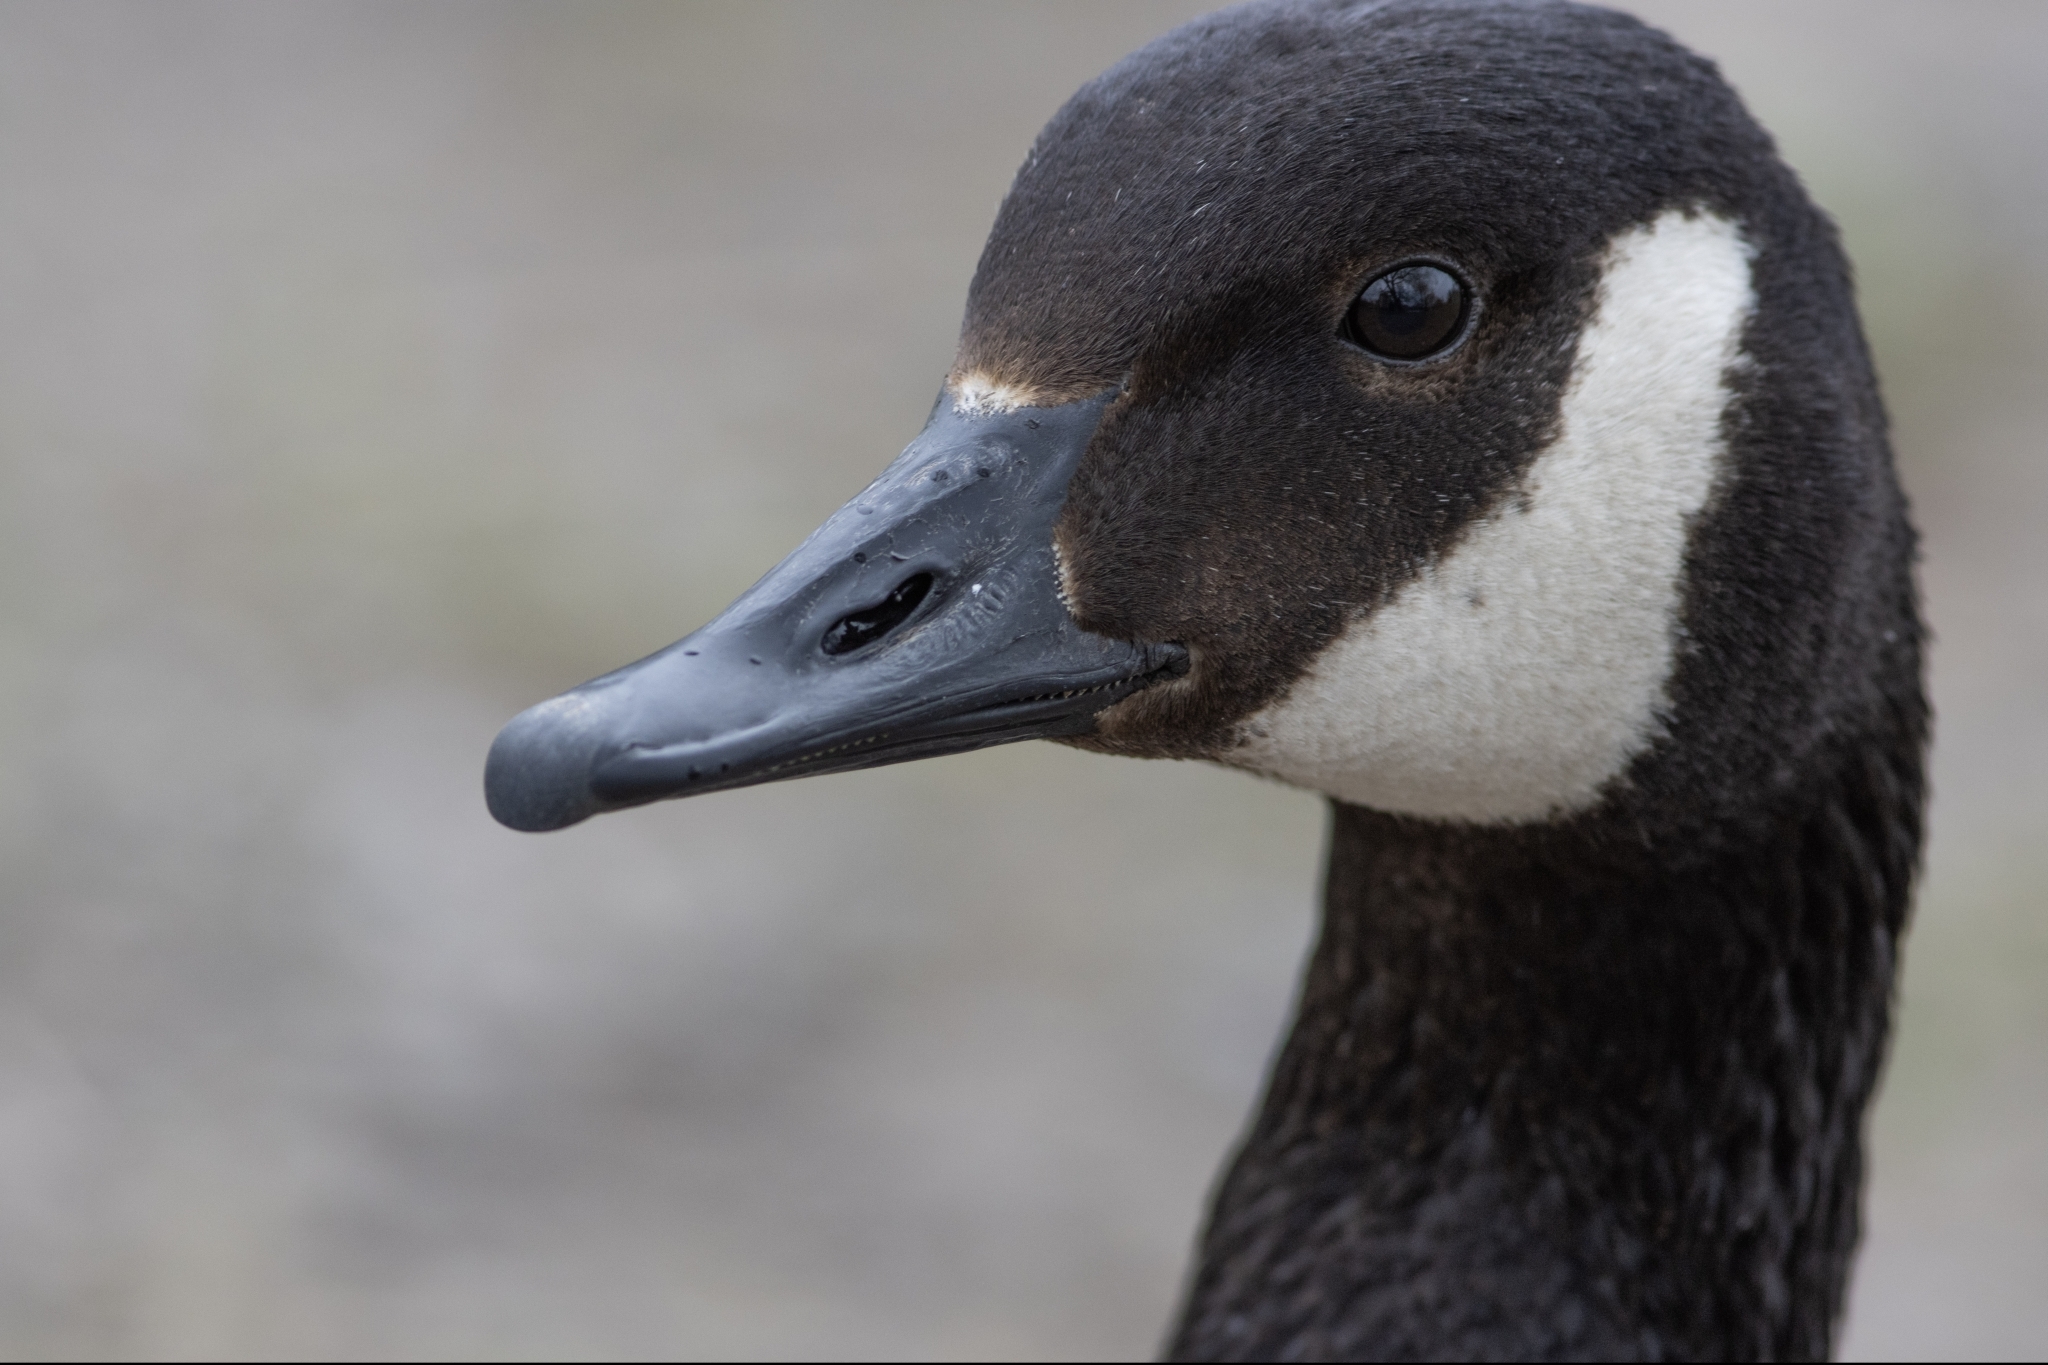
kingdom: Animalia
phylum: Chordata
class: Aves
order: Anseriformes
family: Anatidae
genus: Branta
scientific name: Branta canadensis
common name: Canada goose
